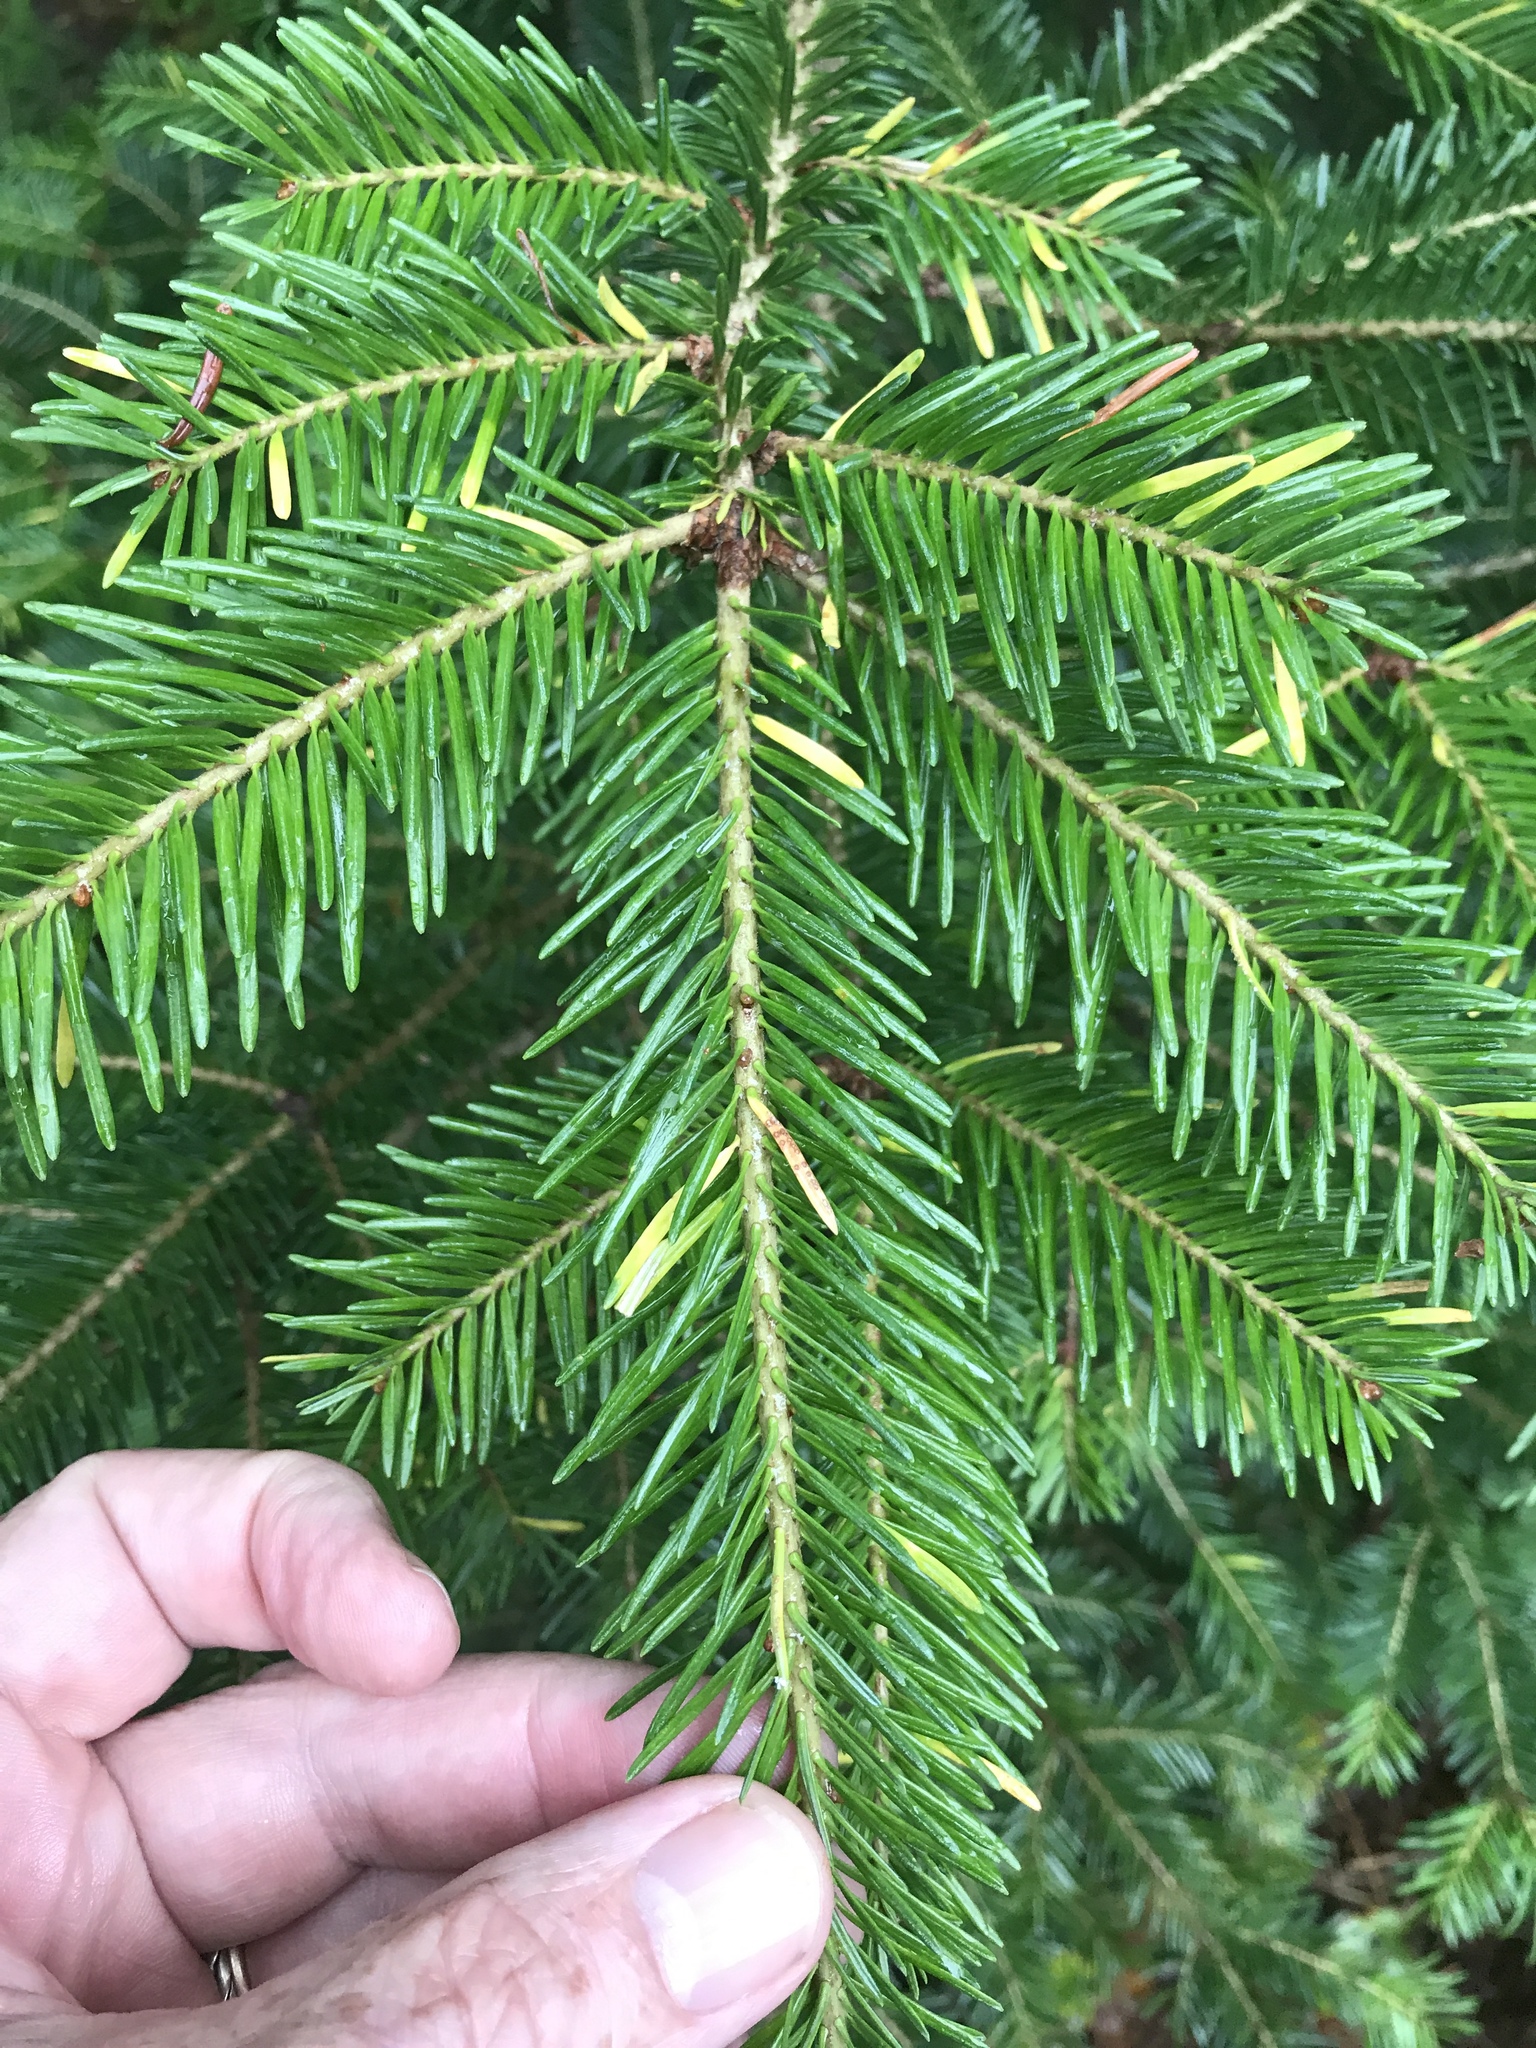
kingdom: Plantae
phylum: Tracheophyta
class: Pinopsida
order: Pinales
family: Pinaceae
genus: Abies
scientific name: Abies balsamea
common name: Balsam fir
